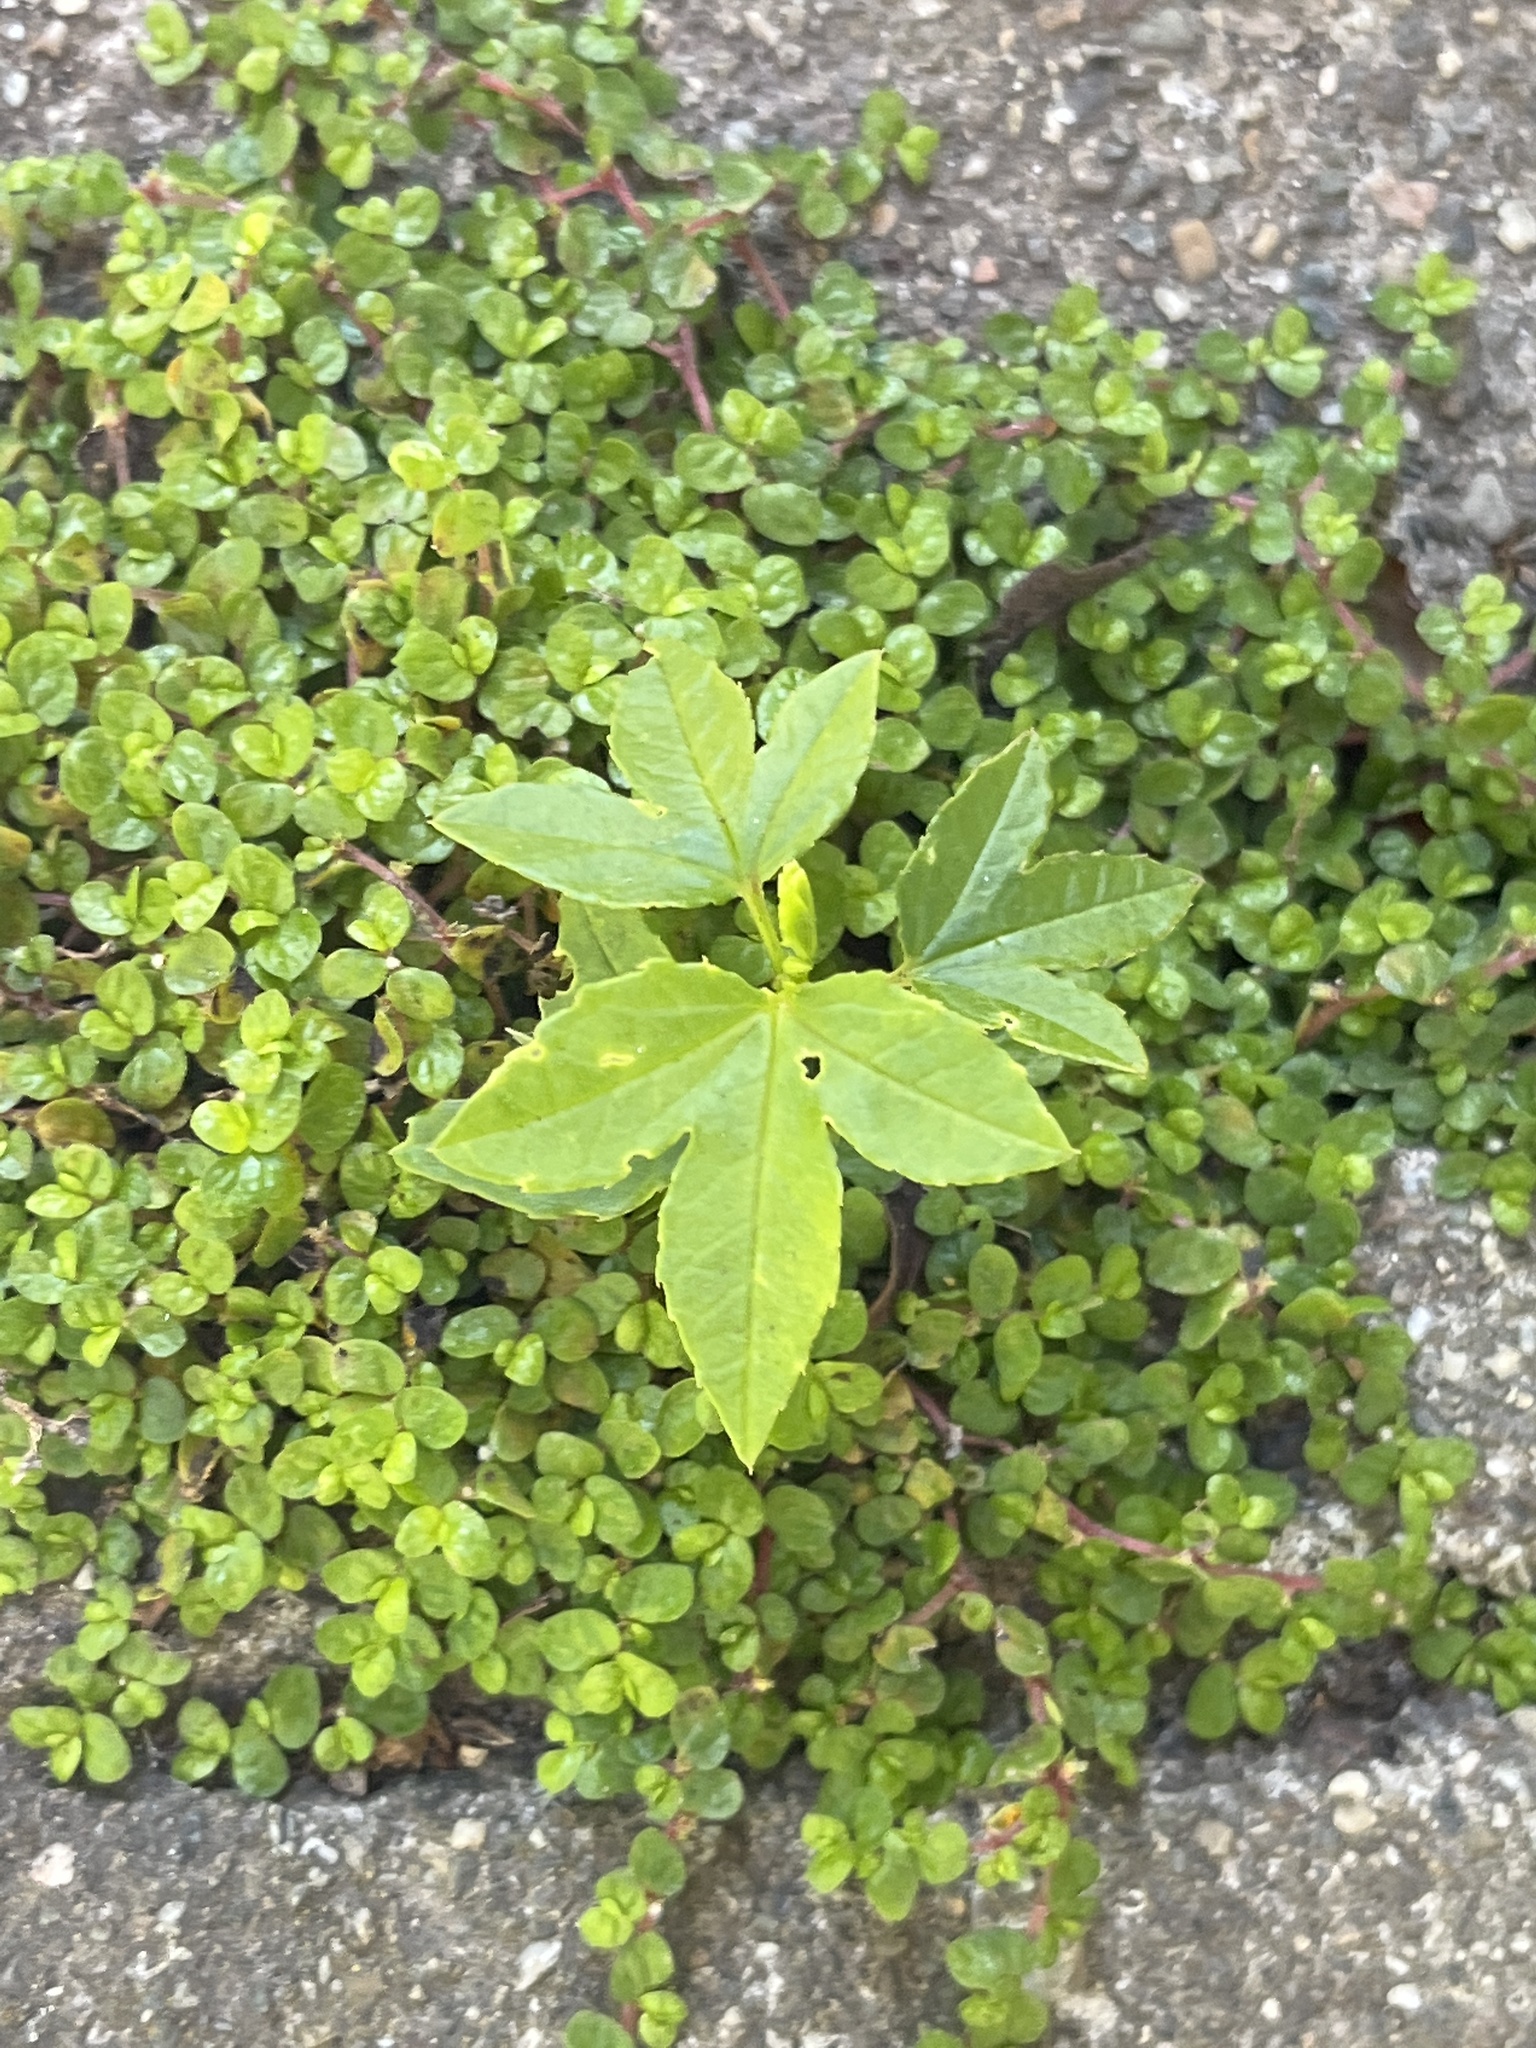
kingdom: Plantae
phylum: Tracheophyta
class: Magnoliopsida
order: Sapindales
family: Sapindaceae
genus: Aesculus
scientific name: Aesculus californica
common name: California buckeye
